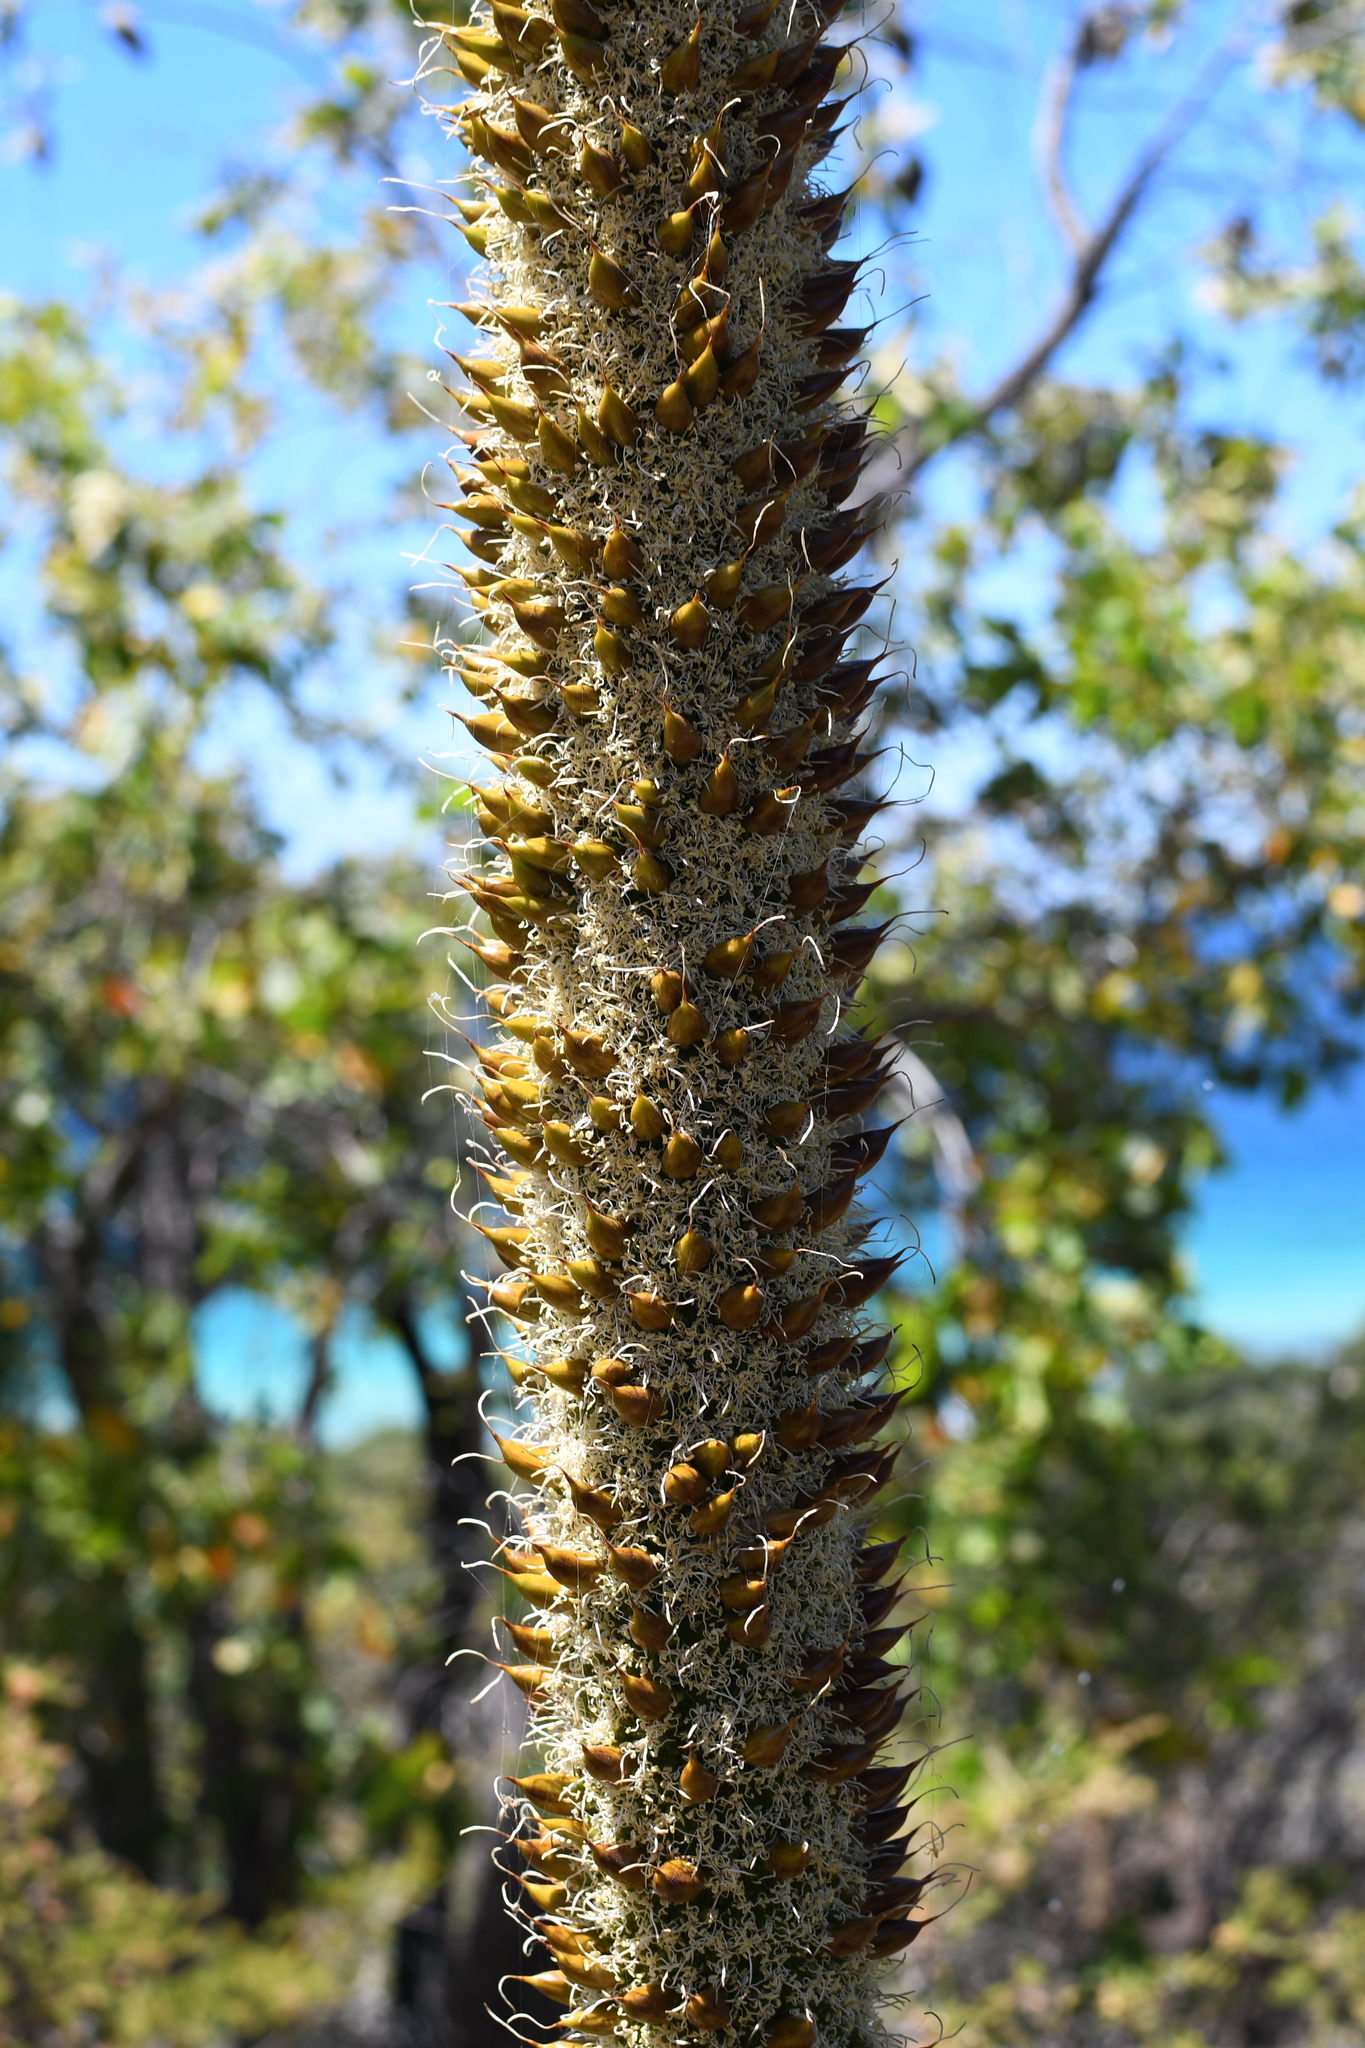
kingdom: Plantae
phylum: Tracheophyta
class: Liliopsida
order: Asparagales
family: Asphodelaceae
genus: Xanthorrhoea
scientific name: Xanthorrhoea preissii
